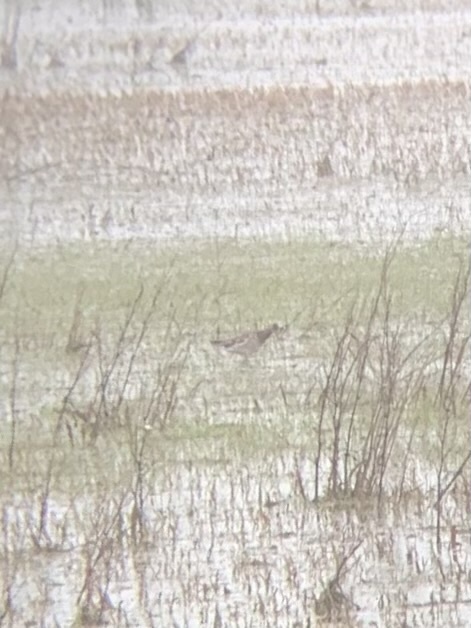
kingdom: Animalia
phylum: Chordata
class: Aves
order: Charadriiformes
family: Scolopacidae
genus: Calidris
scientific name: Calidris pugnax
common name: Ruff
